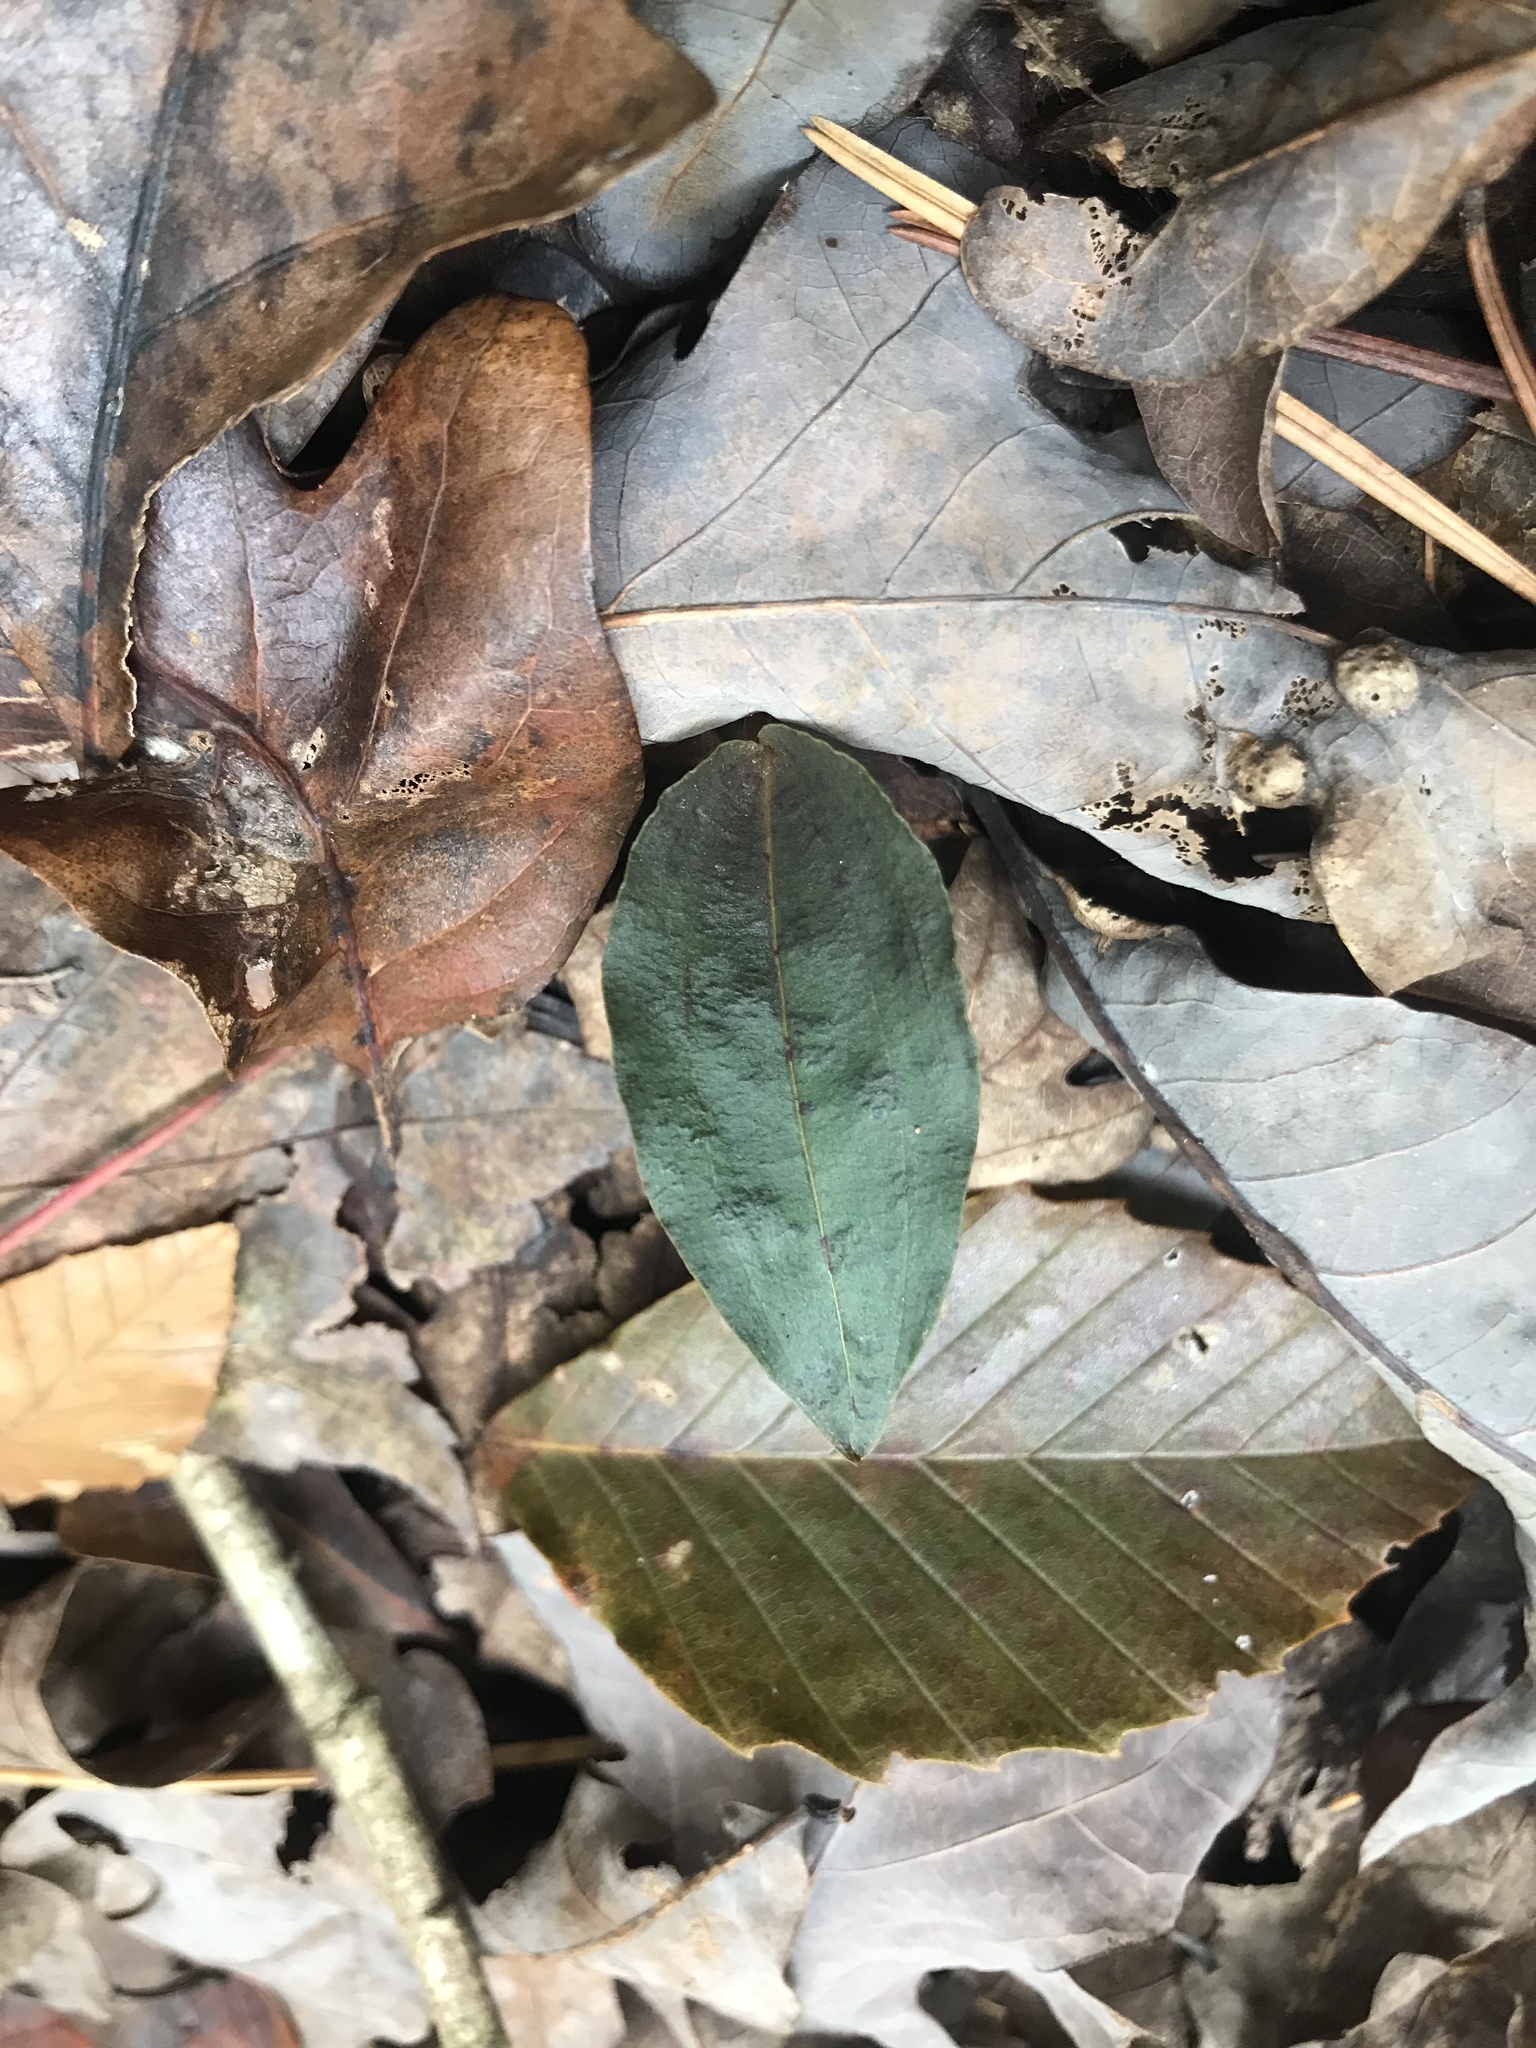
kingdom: Plantae
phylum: Tracheophyta
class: Liliopsida
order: Asparagales
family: Orchidaceae
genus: Tipularia
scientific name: Tipularia discolor
